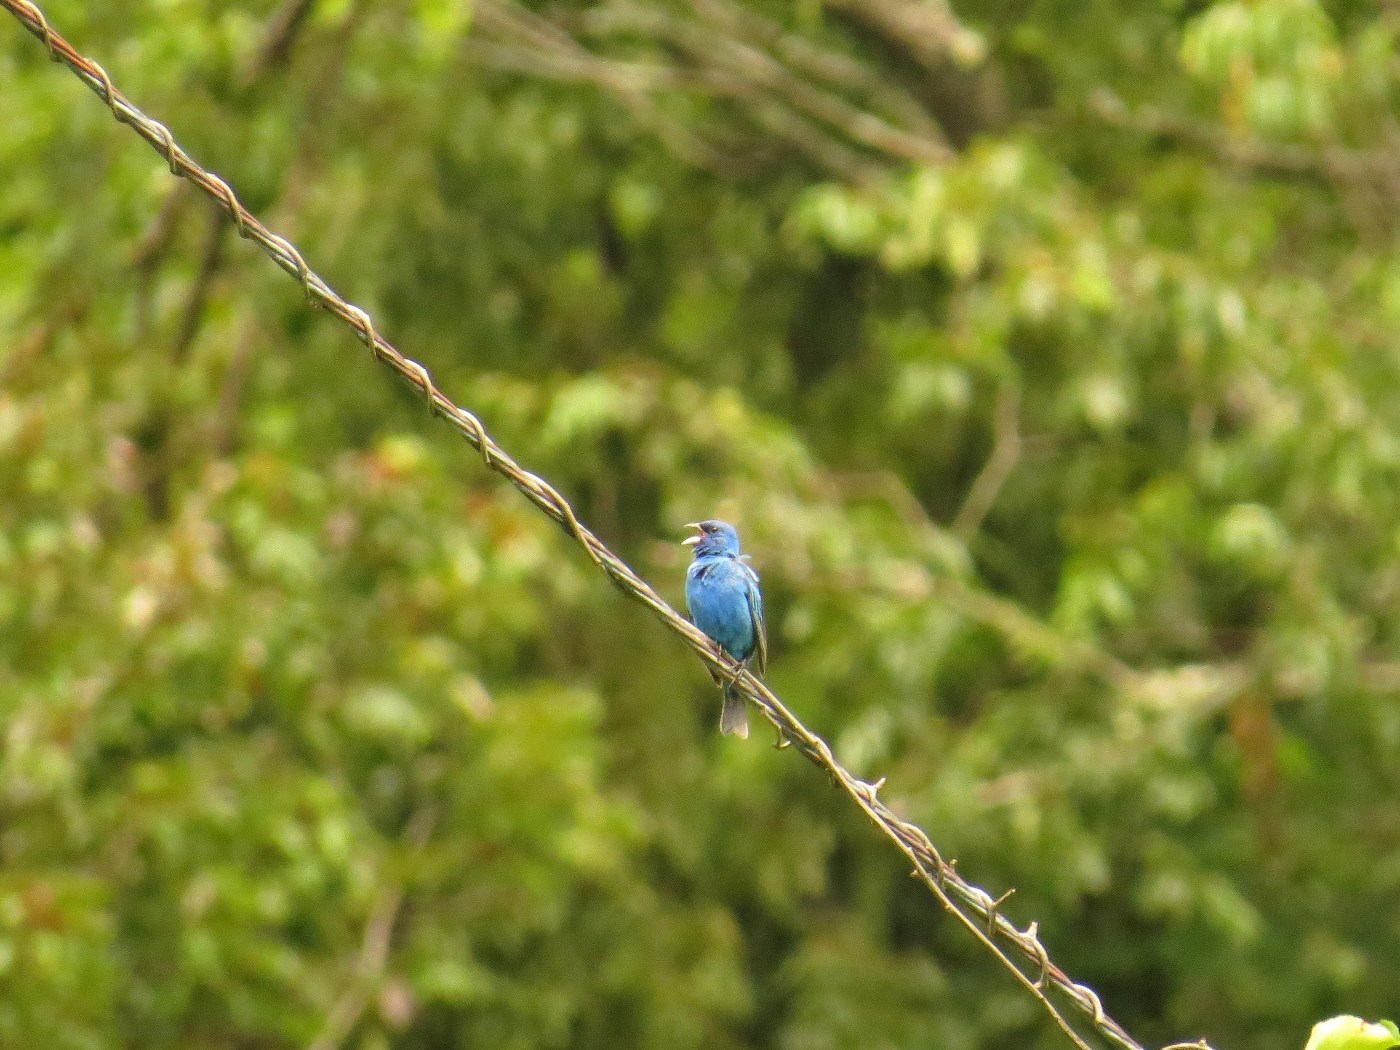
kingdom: Animalia
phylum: Chordata
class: Aves
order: Passeriformes
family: Cardinalidae
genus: Passerina
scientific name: Passerina cyanea
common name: Indigo bunting
